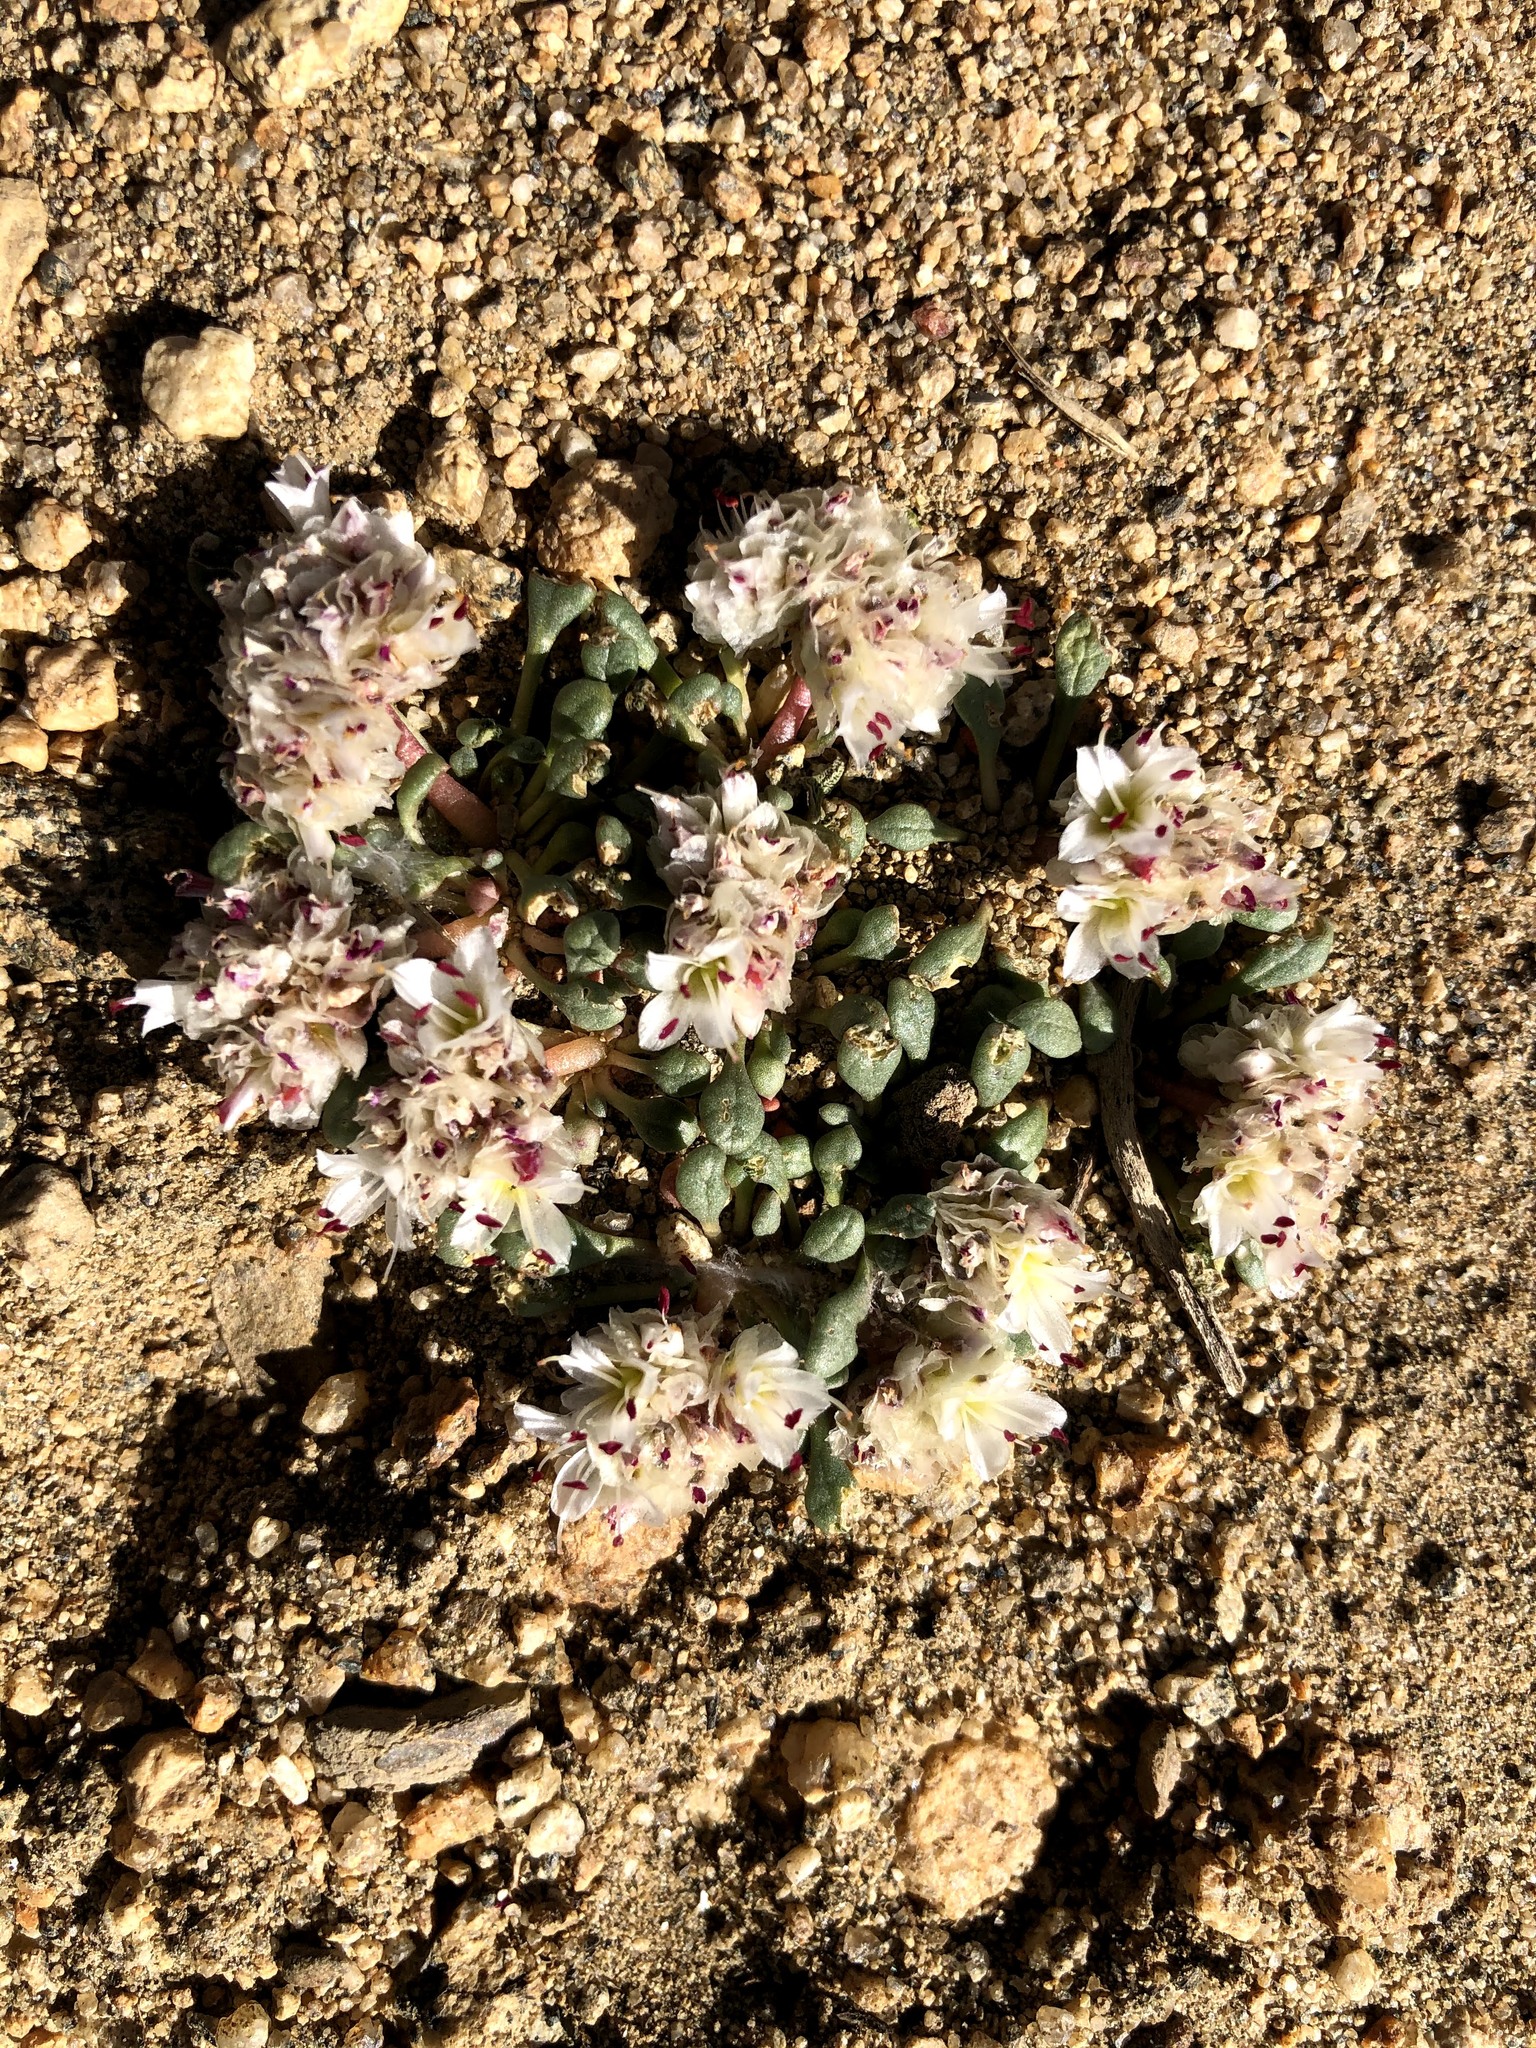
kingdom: Plantae
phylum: Tracheophyta
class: Magnoliopsida
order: Caryophyllales
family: Montiaceae
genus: Calyptridium
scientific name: Calyptridium umbellatum
